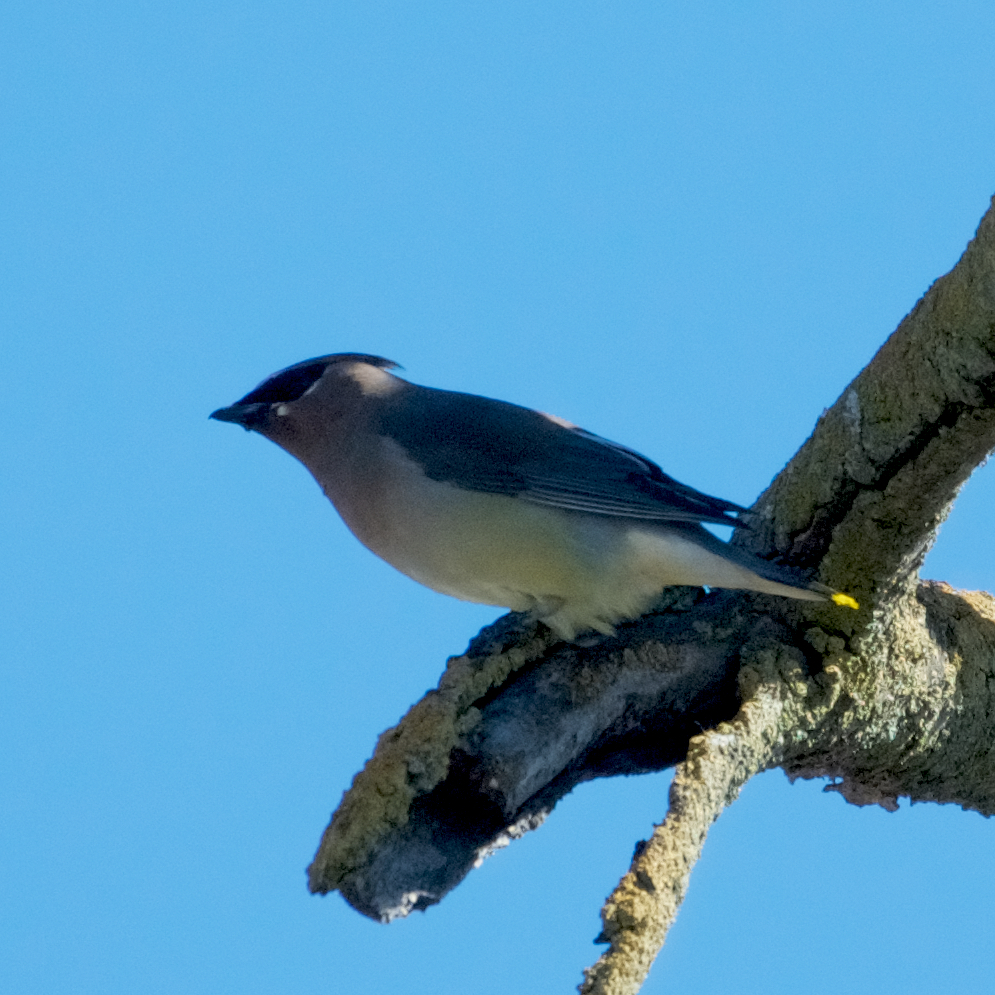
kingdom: Animalia
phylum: Chordata
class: Aves
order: Passeriformes
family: Bombycillidae
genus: Bombycilla
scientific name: Bombycilla cedrorum
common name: Cedar waxwing
